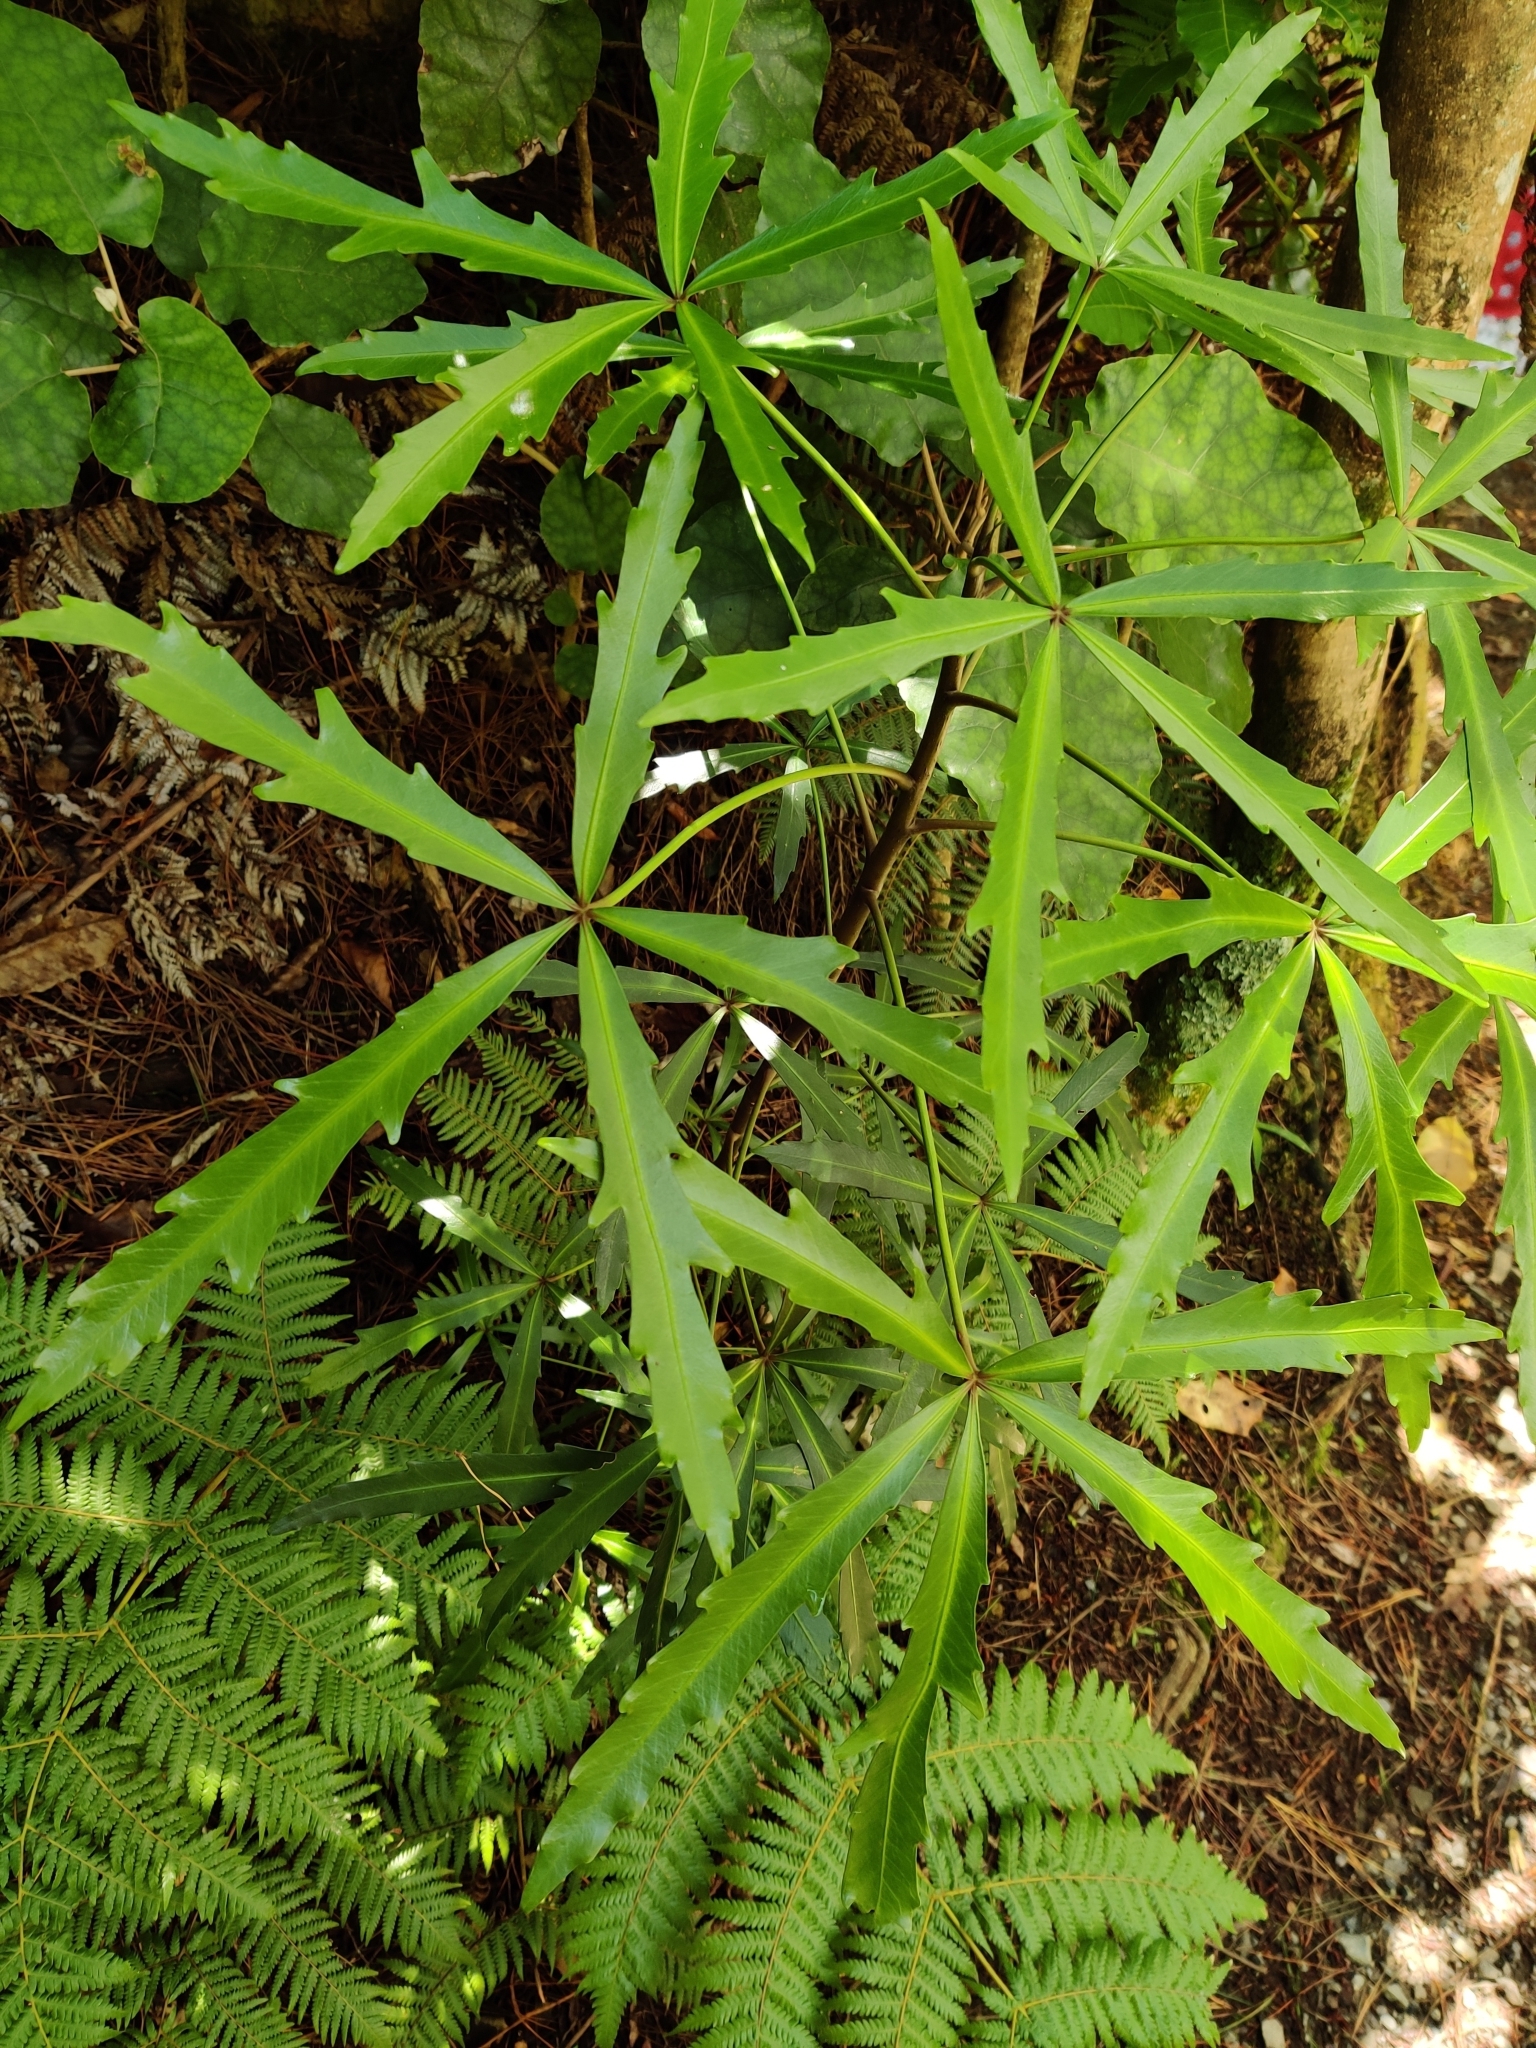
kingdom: Plantae
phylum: Tracheophyta
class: Magnoliopsida
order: Apiales
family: Araliaceae
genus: Pseudopanax
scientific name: Pseudopanax
